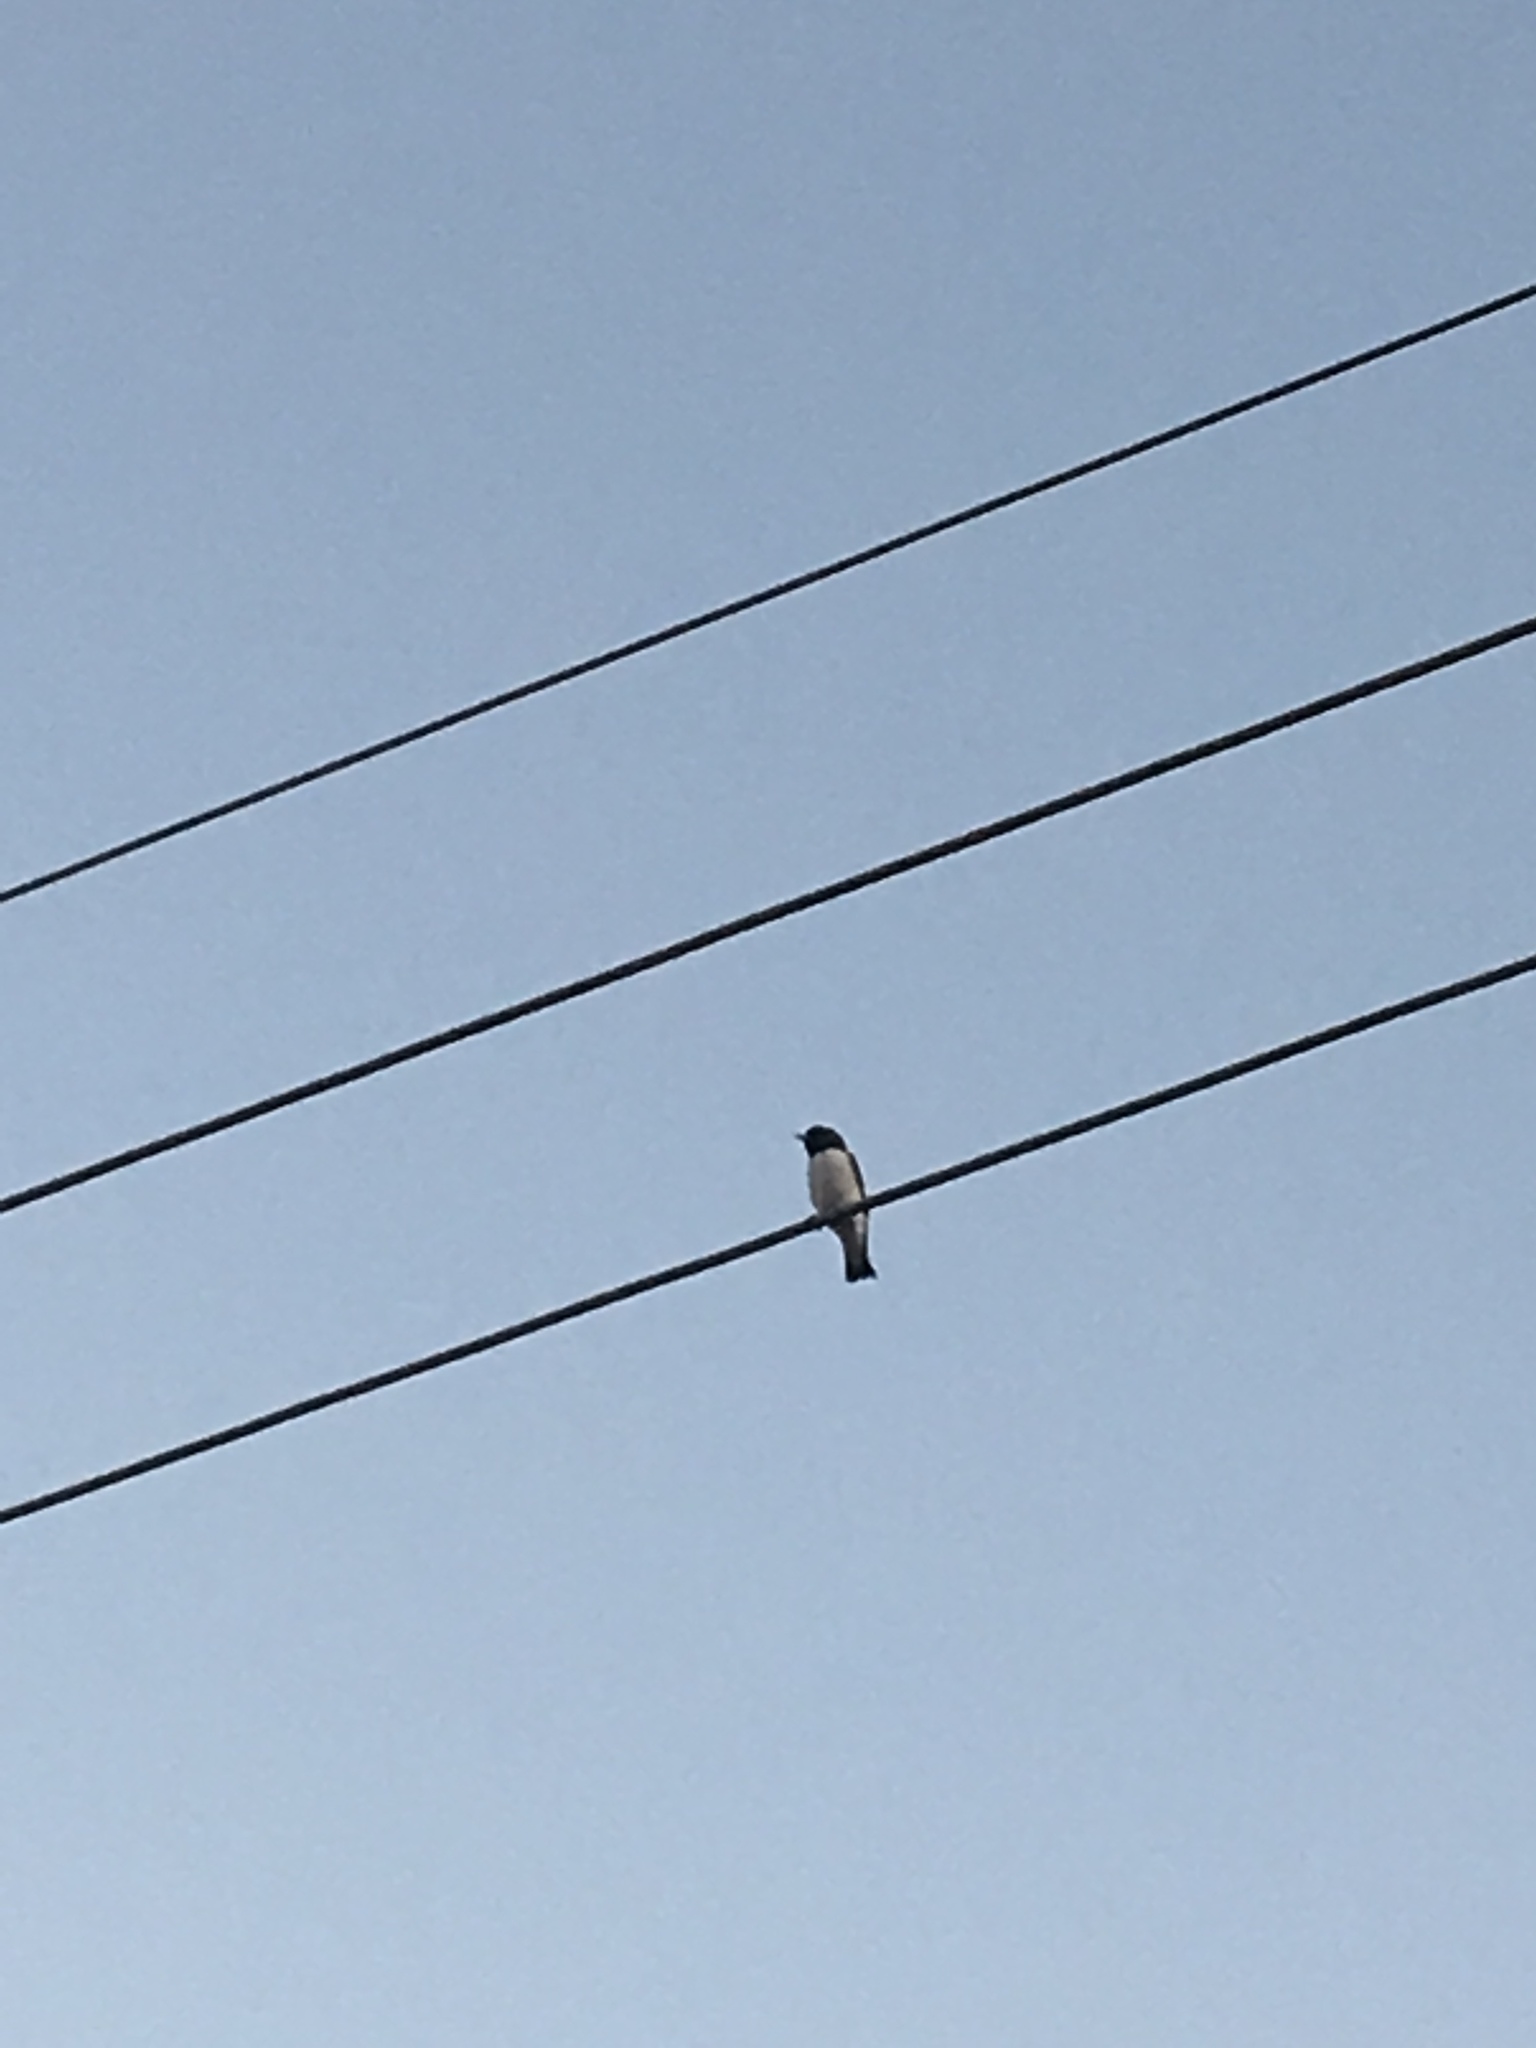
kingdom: Animalia
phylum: Chordata
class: Aves
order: Passeriformes
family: Artamidae
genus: Artamus
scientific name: Artamus leucoryn
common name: White-breasted woodswallow
